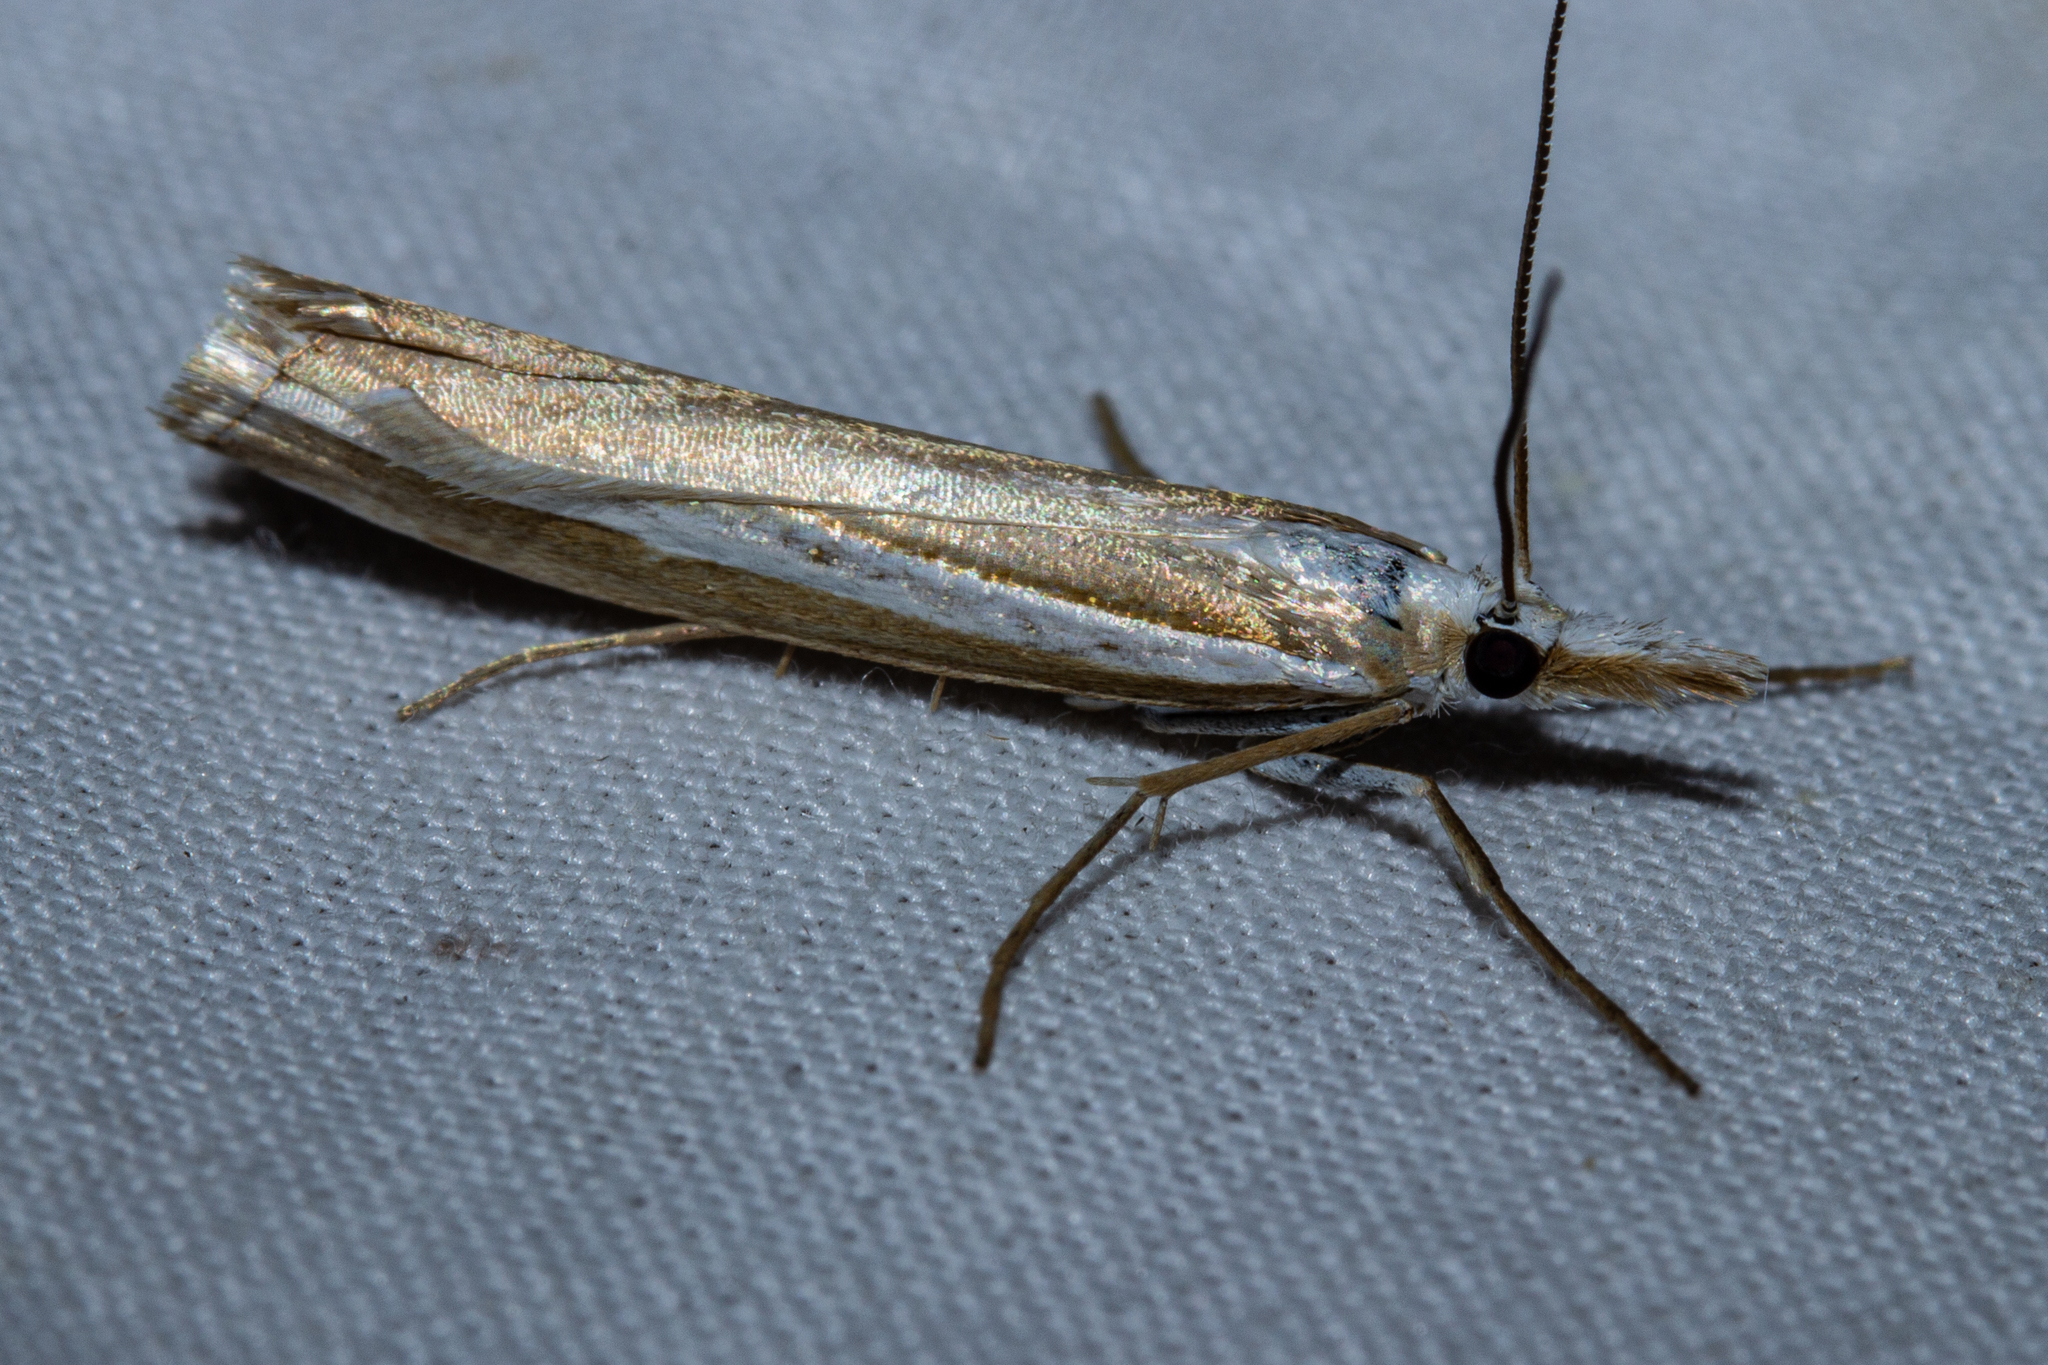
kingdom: Animalia
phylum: Arthropoda
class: Insecta
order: Lepidoptera
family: Crambidae
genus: Orocrambus
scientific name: Orocrambus vittellus
